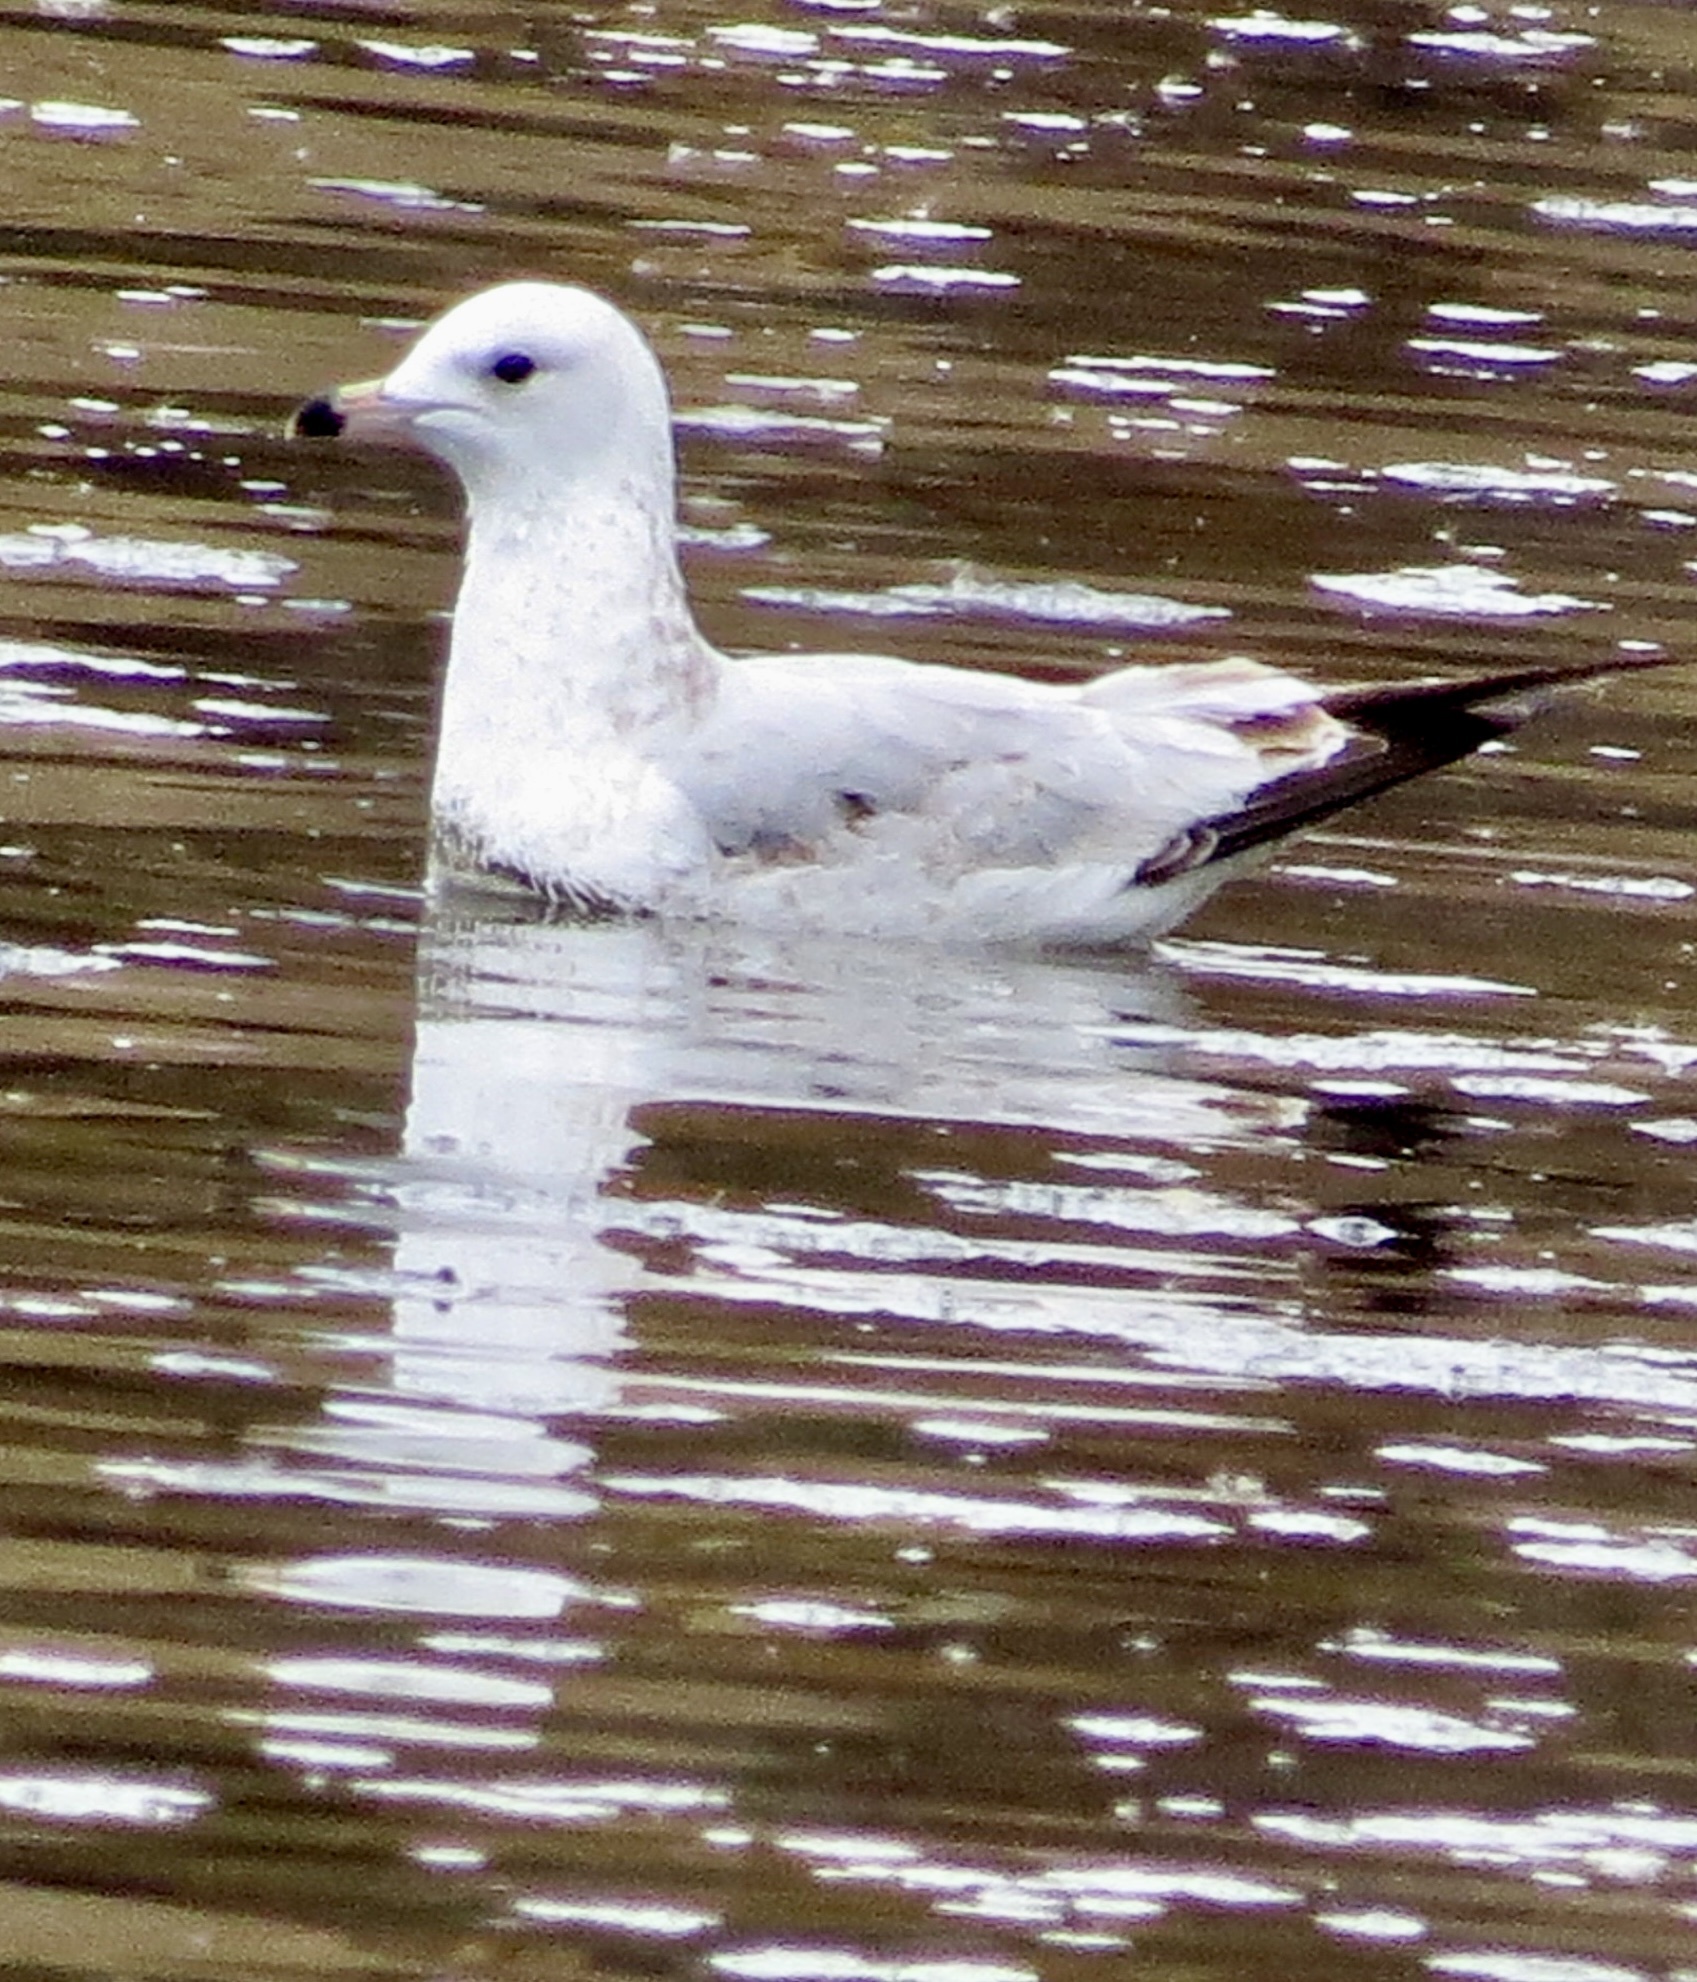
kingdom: Animalia
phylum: Chordata
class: Aves
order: Charadriiformes
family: Laridae
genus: Larus
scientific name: Larus delawarensis
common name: Ring-billed gull
